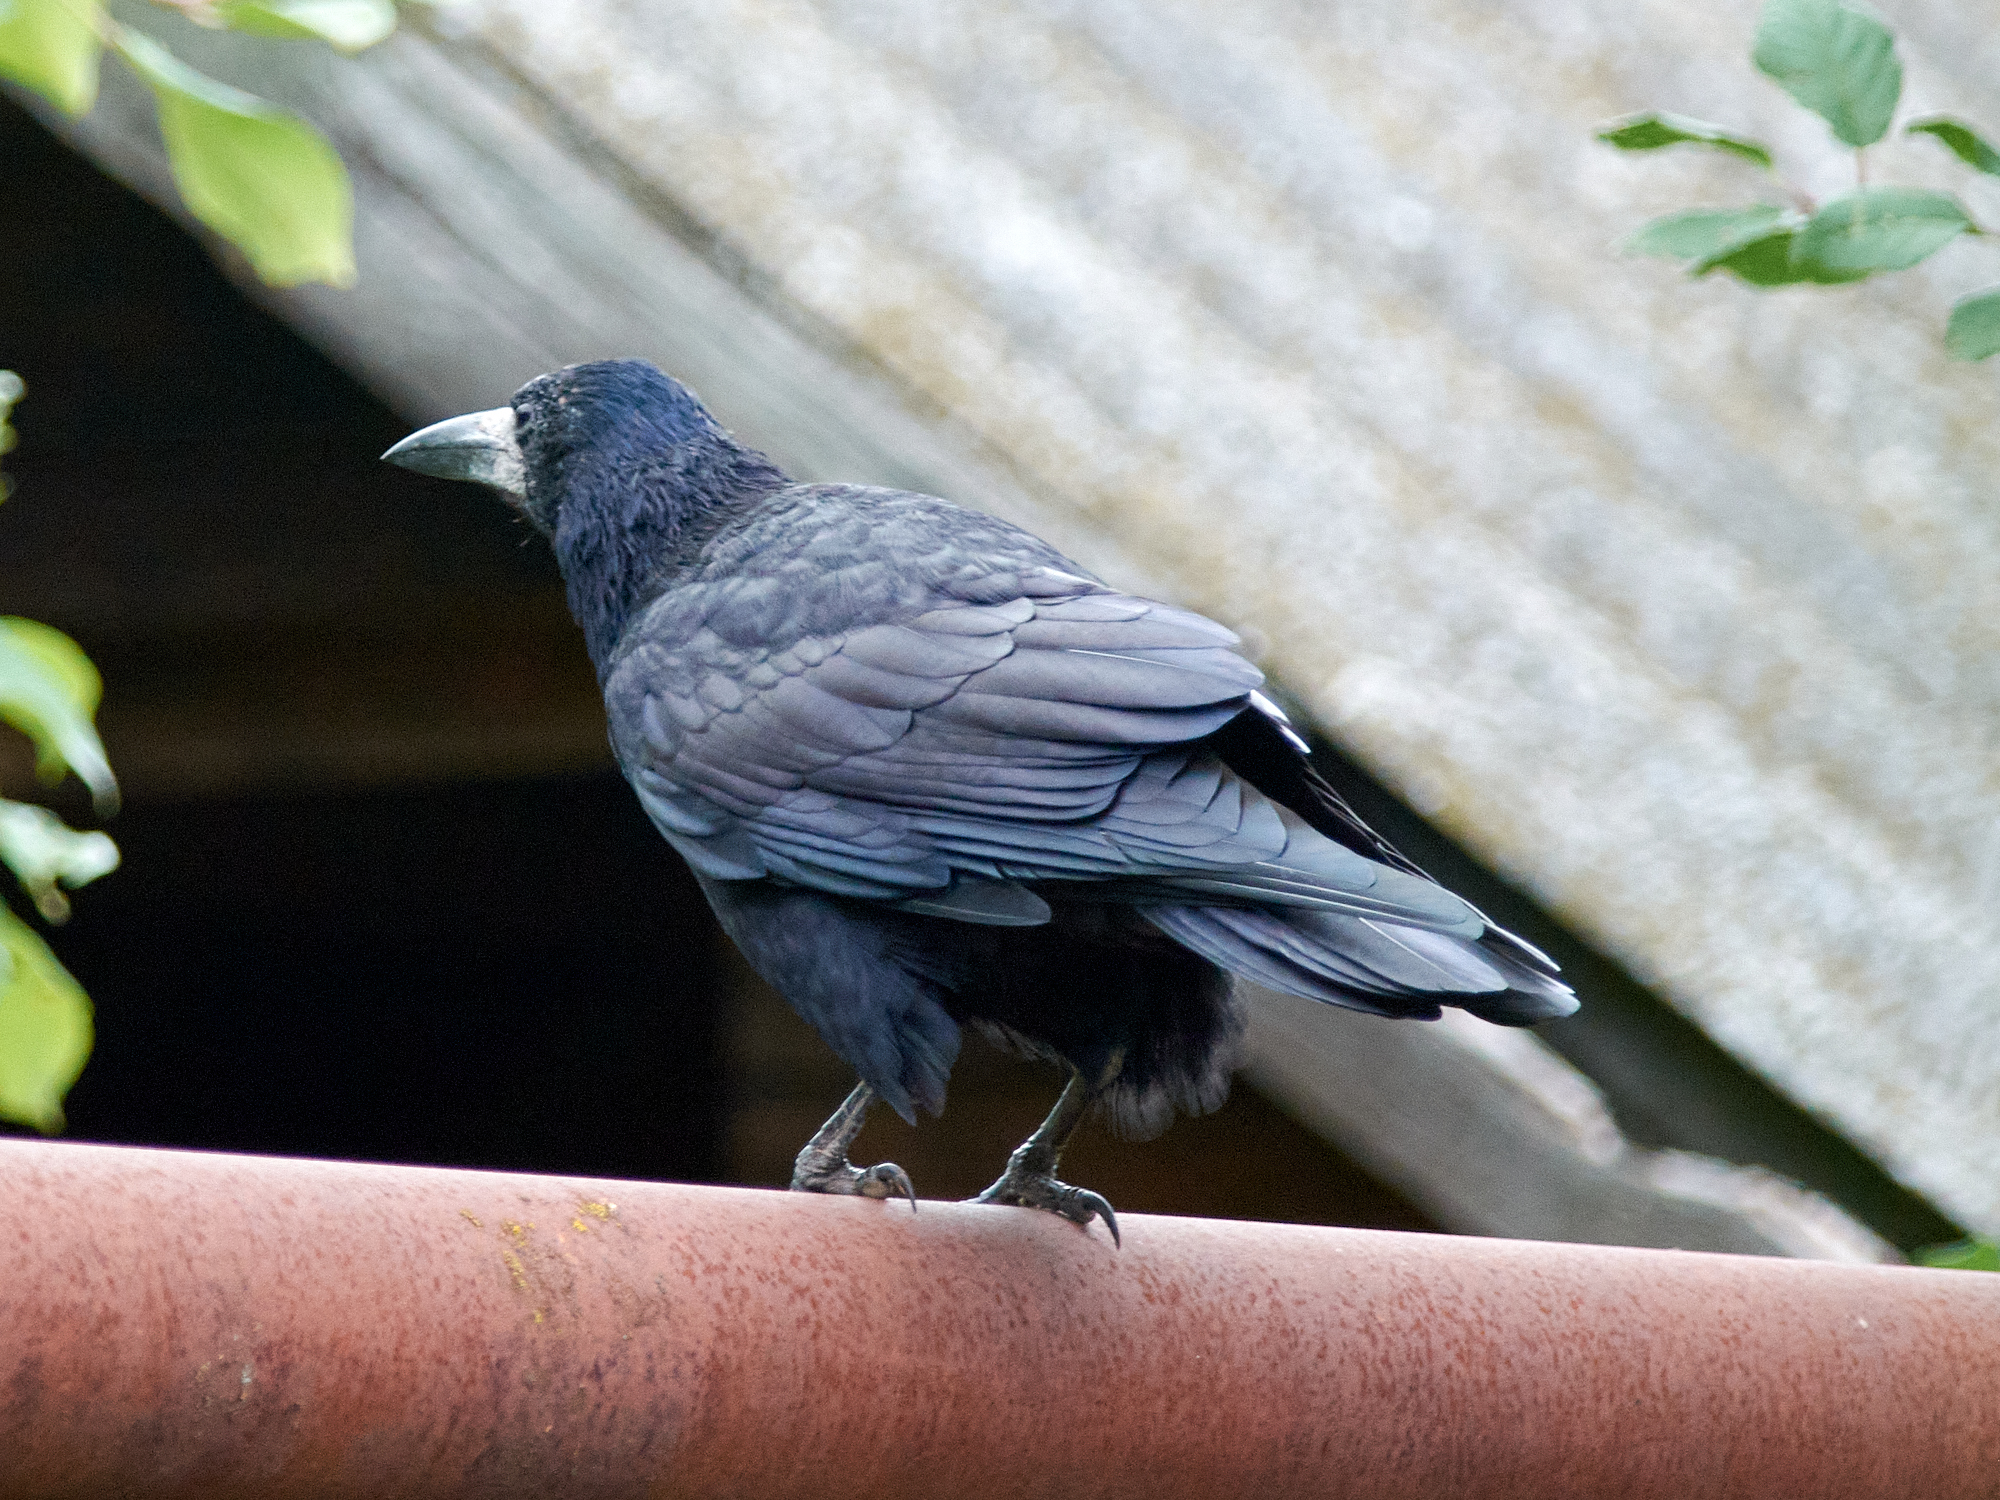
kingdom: Animalia
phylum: Chordata
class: Aves
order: Passeriformes
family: Corvidae
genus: Corvus
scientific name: Corvus frugilegus
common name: Rook
